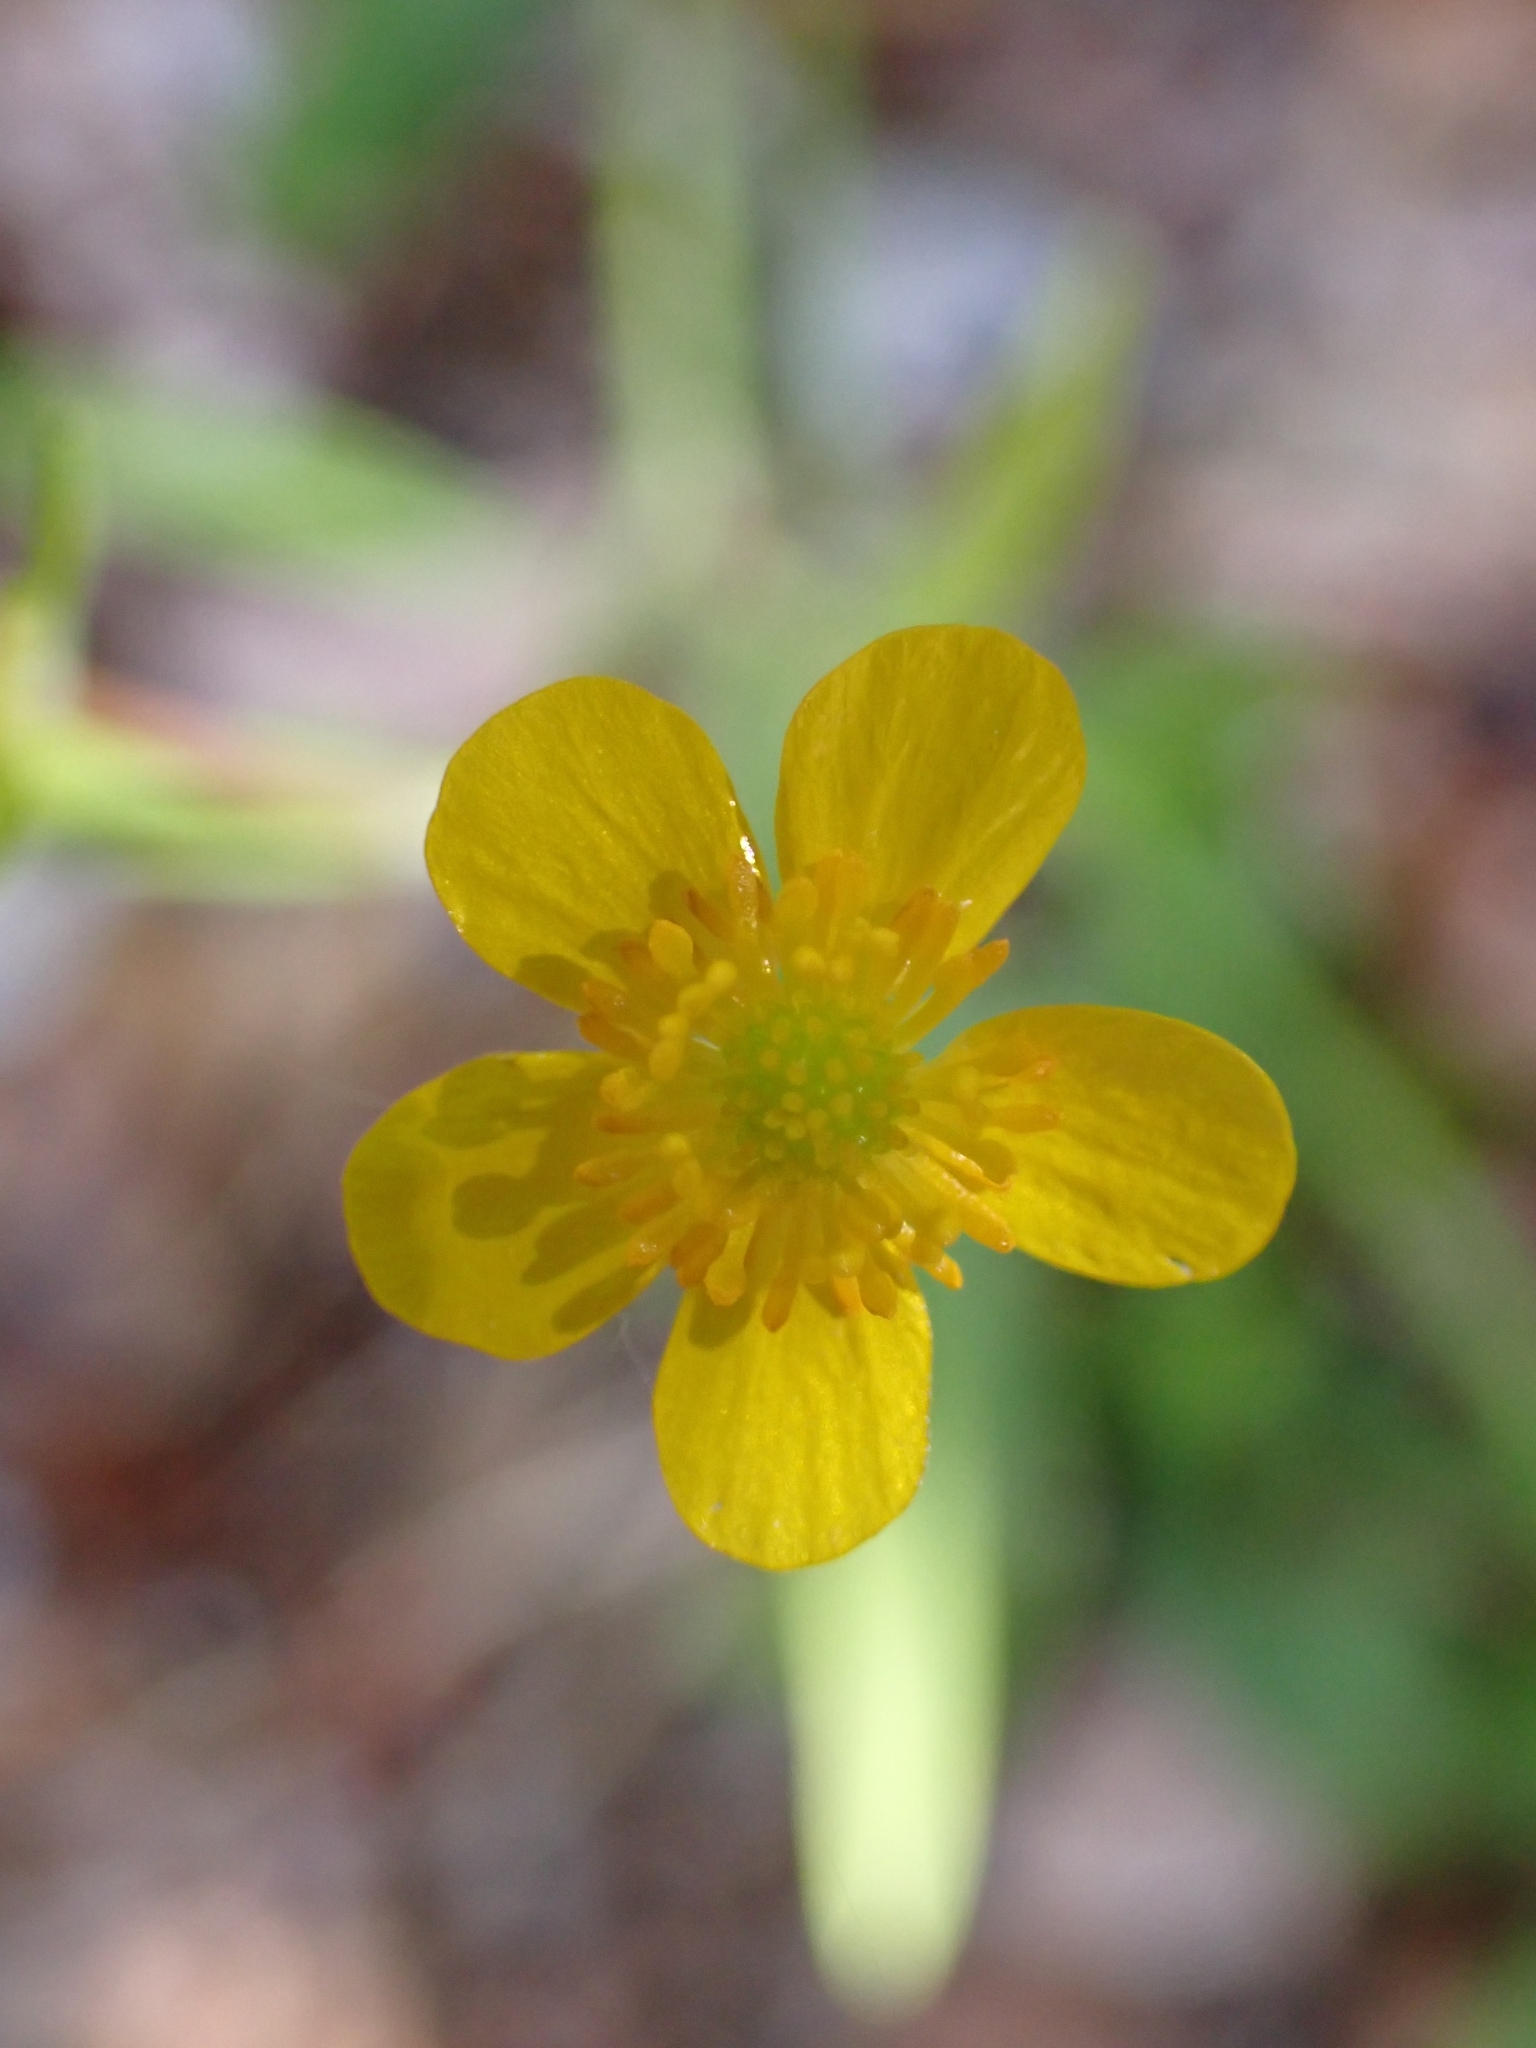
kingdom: Plantae
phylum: Tracheophyta
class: Magnoliopsida
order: Ranunculales
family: Ranunculaceae
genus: Ranunculus
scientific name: Ranunculus flammula
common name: Lesser spearwort
